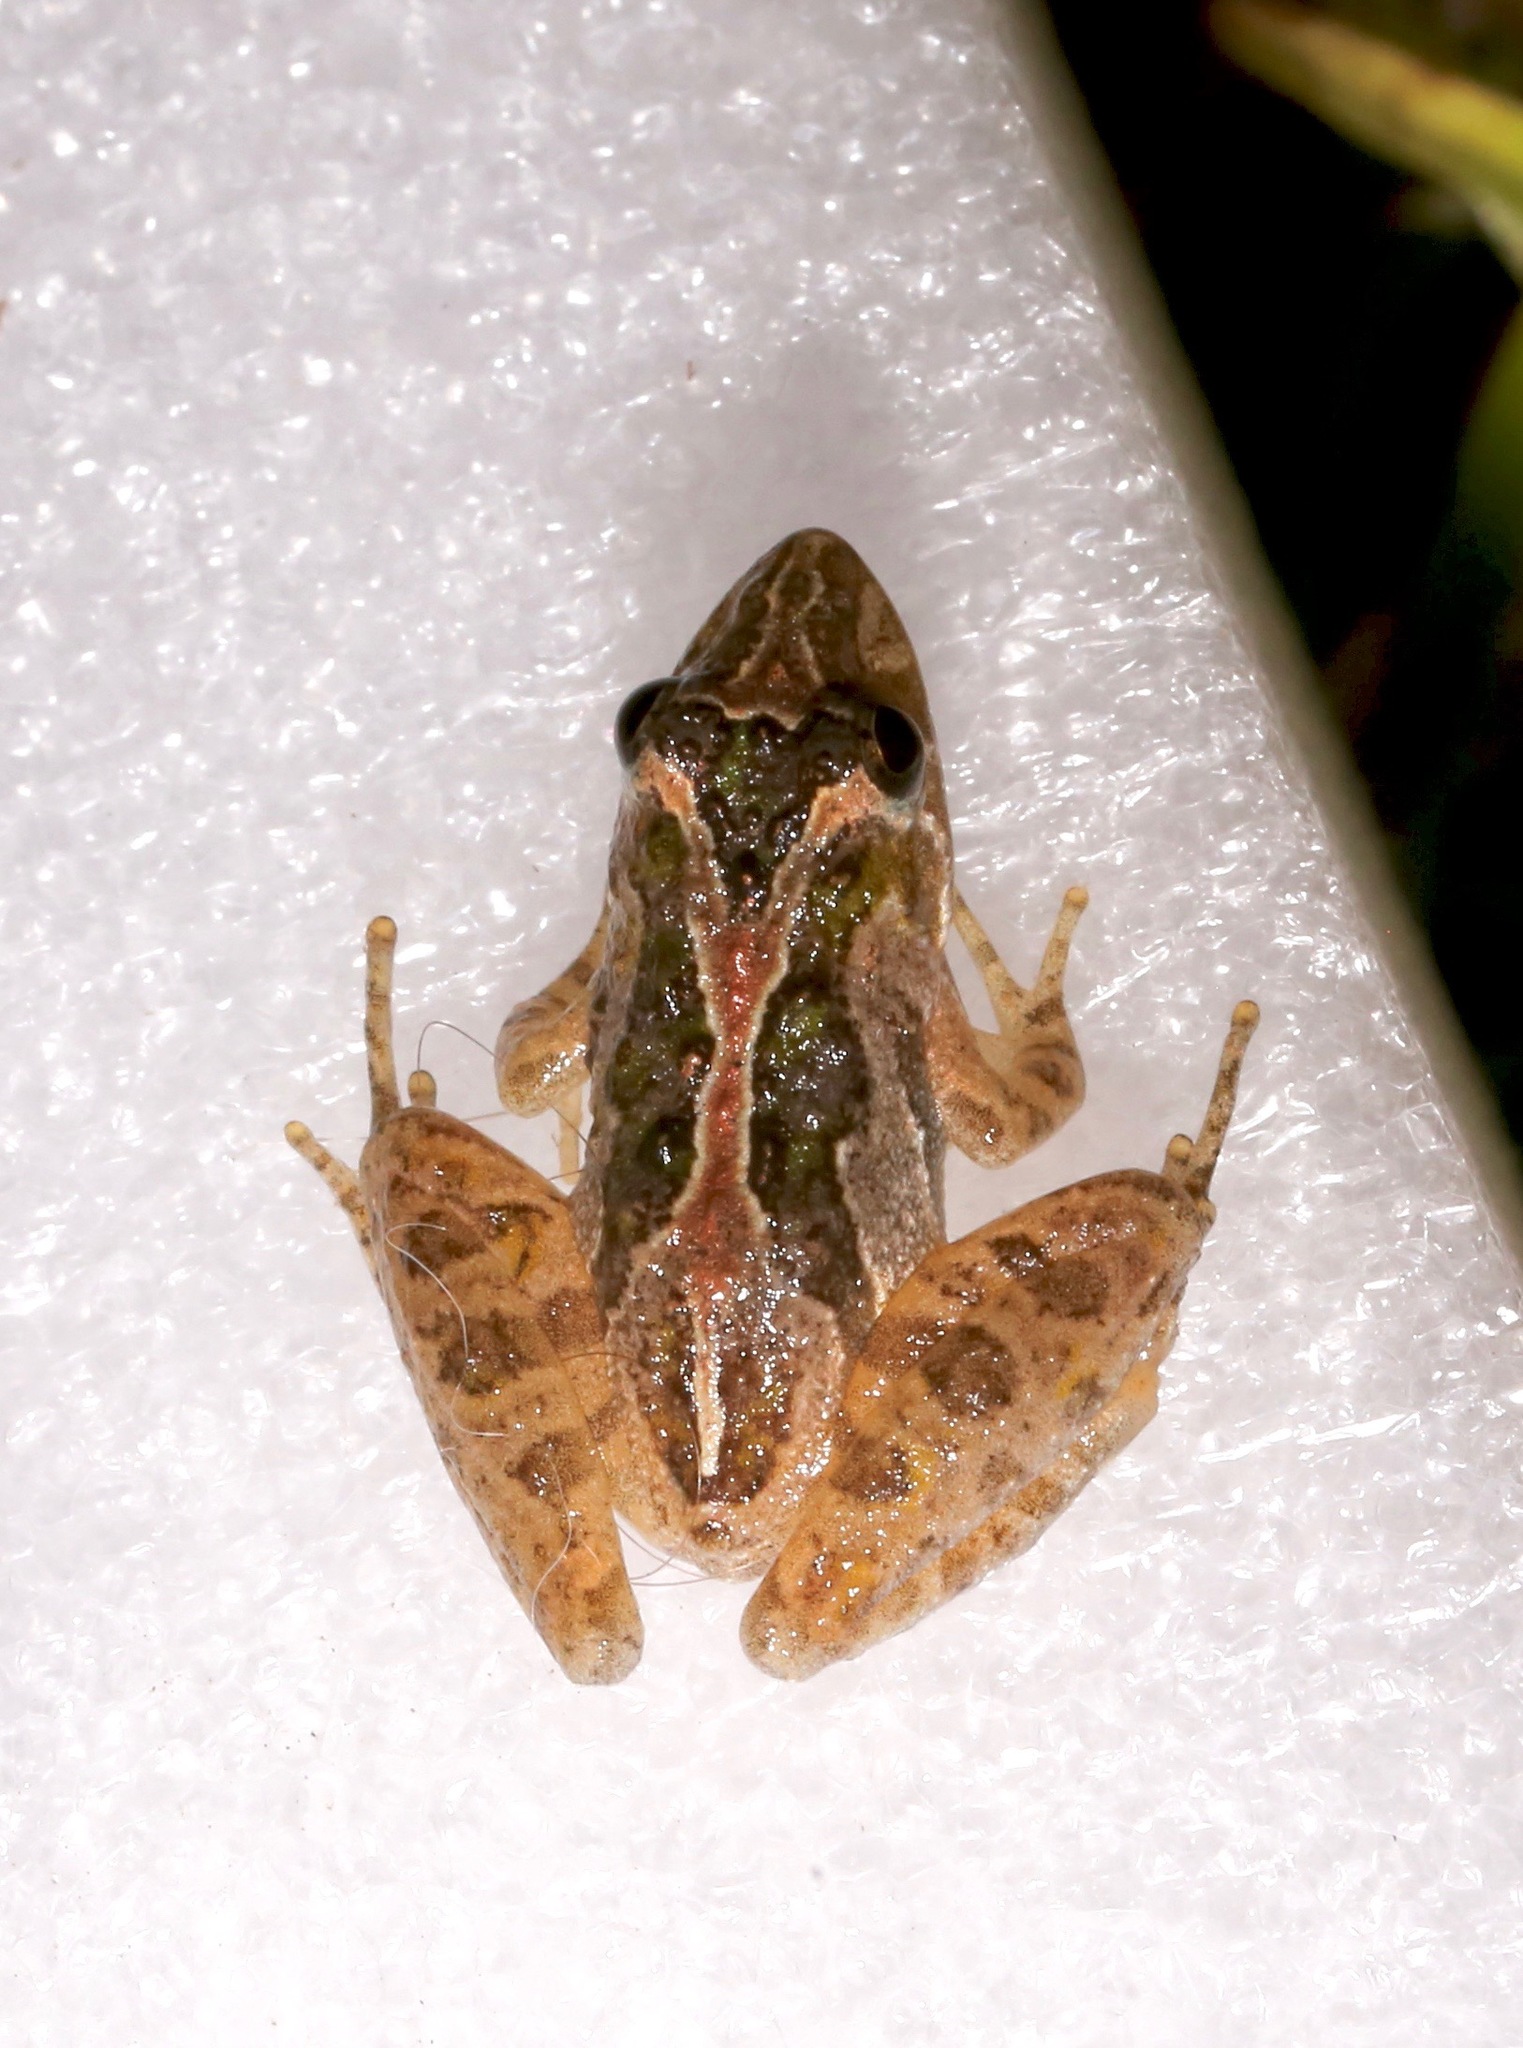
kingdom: Animalia
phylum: Chordata
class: Amphibia
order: Anura
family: Hylidae
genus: Acris
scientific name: Acris gryllus
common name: Southern cricket frog
